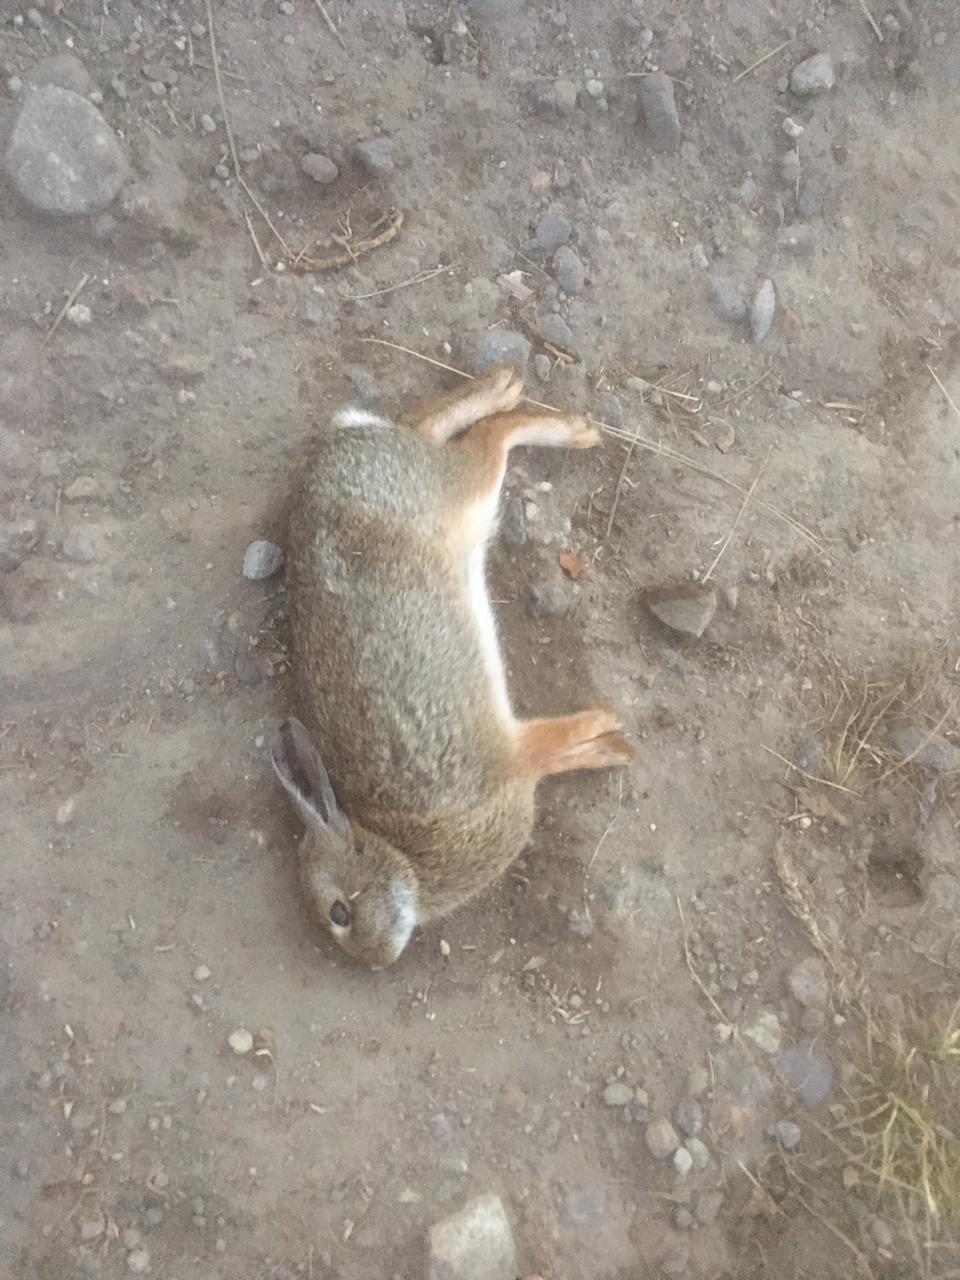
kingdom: Animalia
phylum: Chordata
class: Mammalia
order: Lagomorpha
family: Leporidae
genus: Sylvilagus
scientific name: Sylvilagus cunicularius
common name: Mexican cottontail
